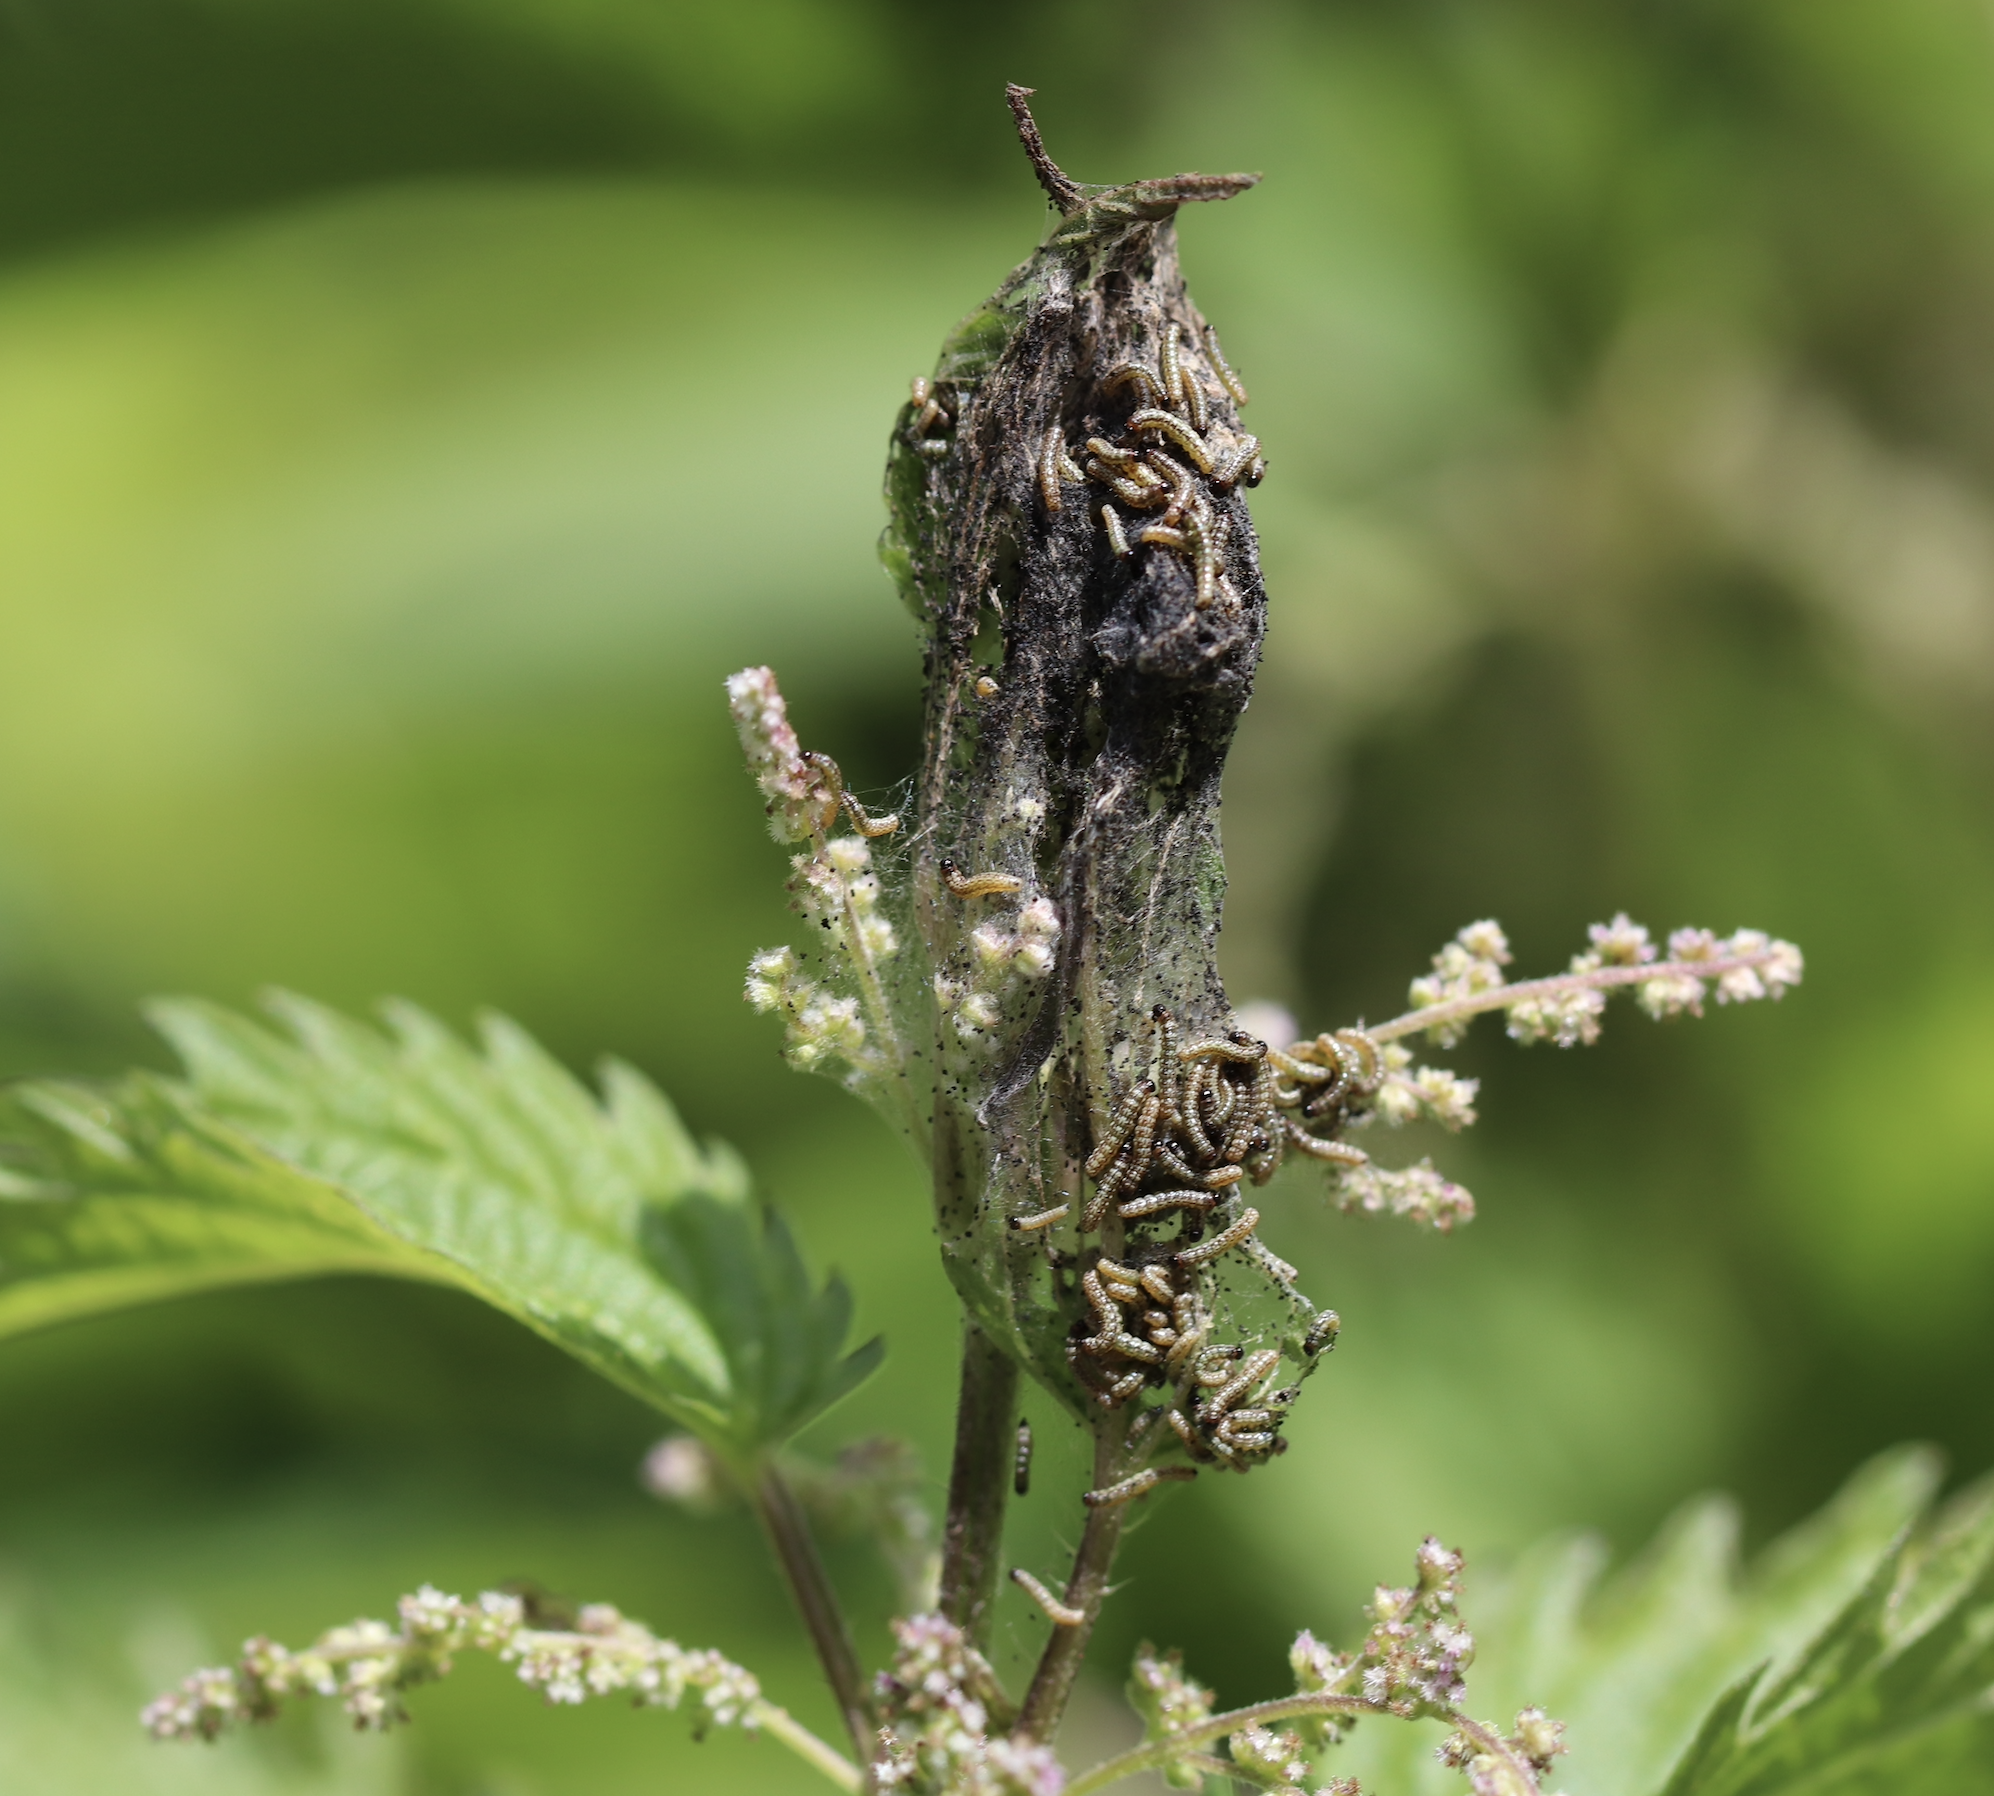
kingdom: Animalia
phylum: Arthropoda
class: Insecta
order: Lepidoptera
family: Nymphalidae
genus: Aglais
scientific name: Aglais milberti
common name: Milbert's tortoiseshell
